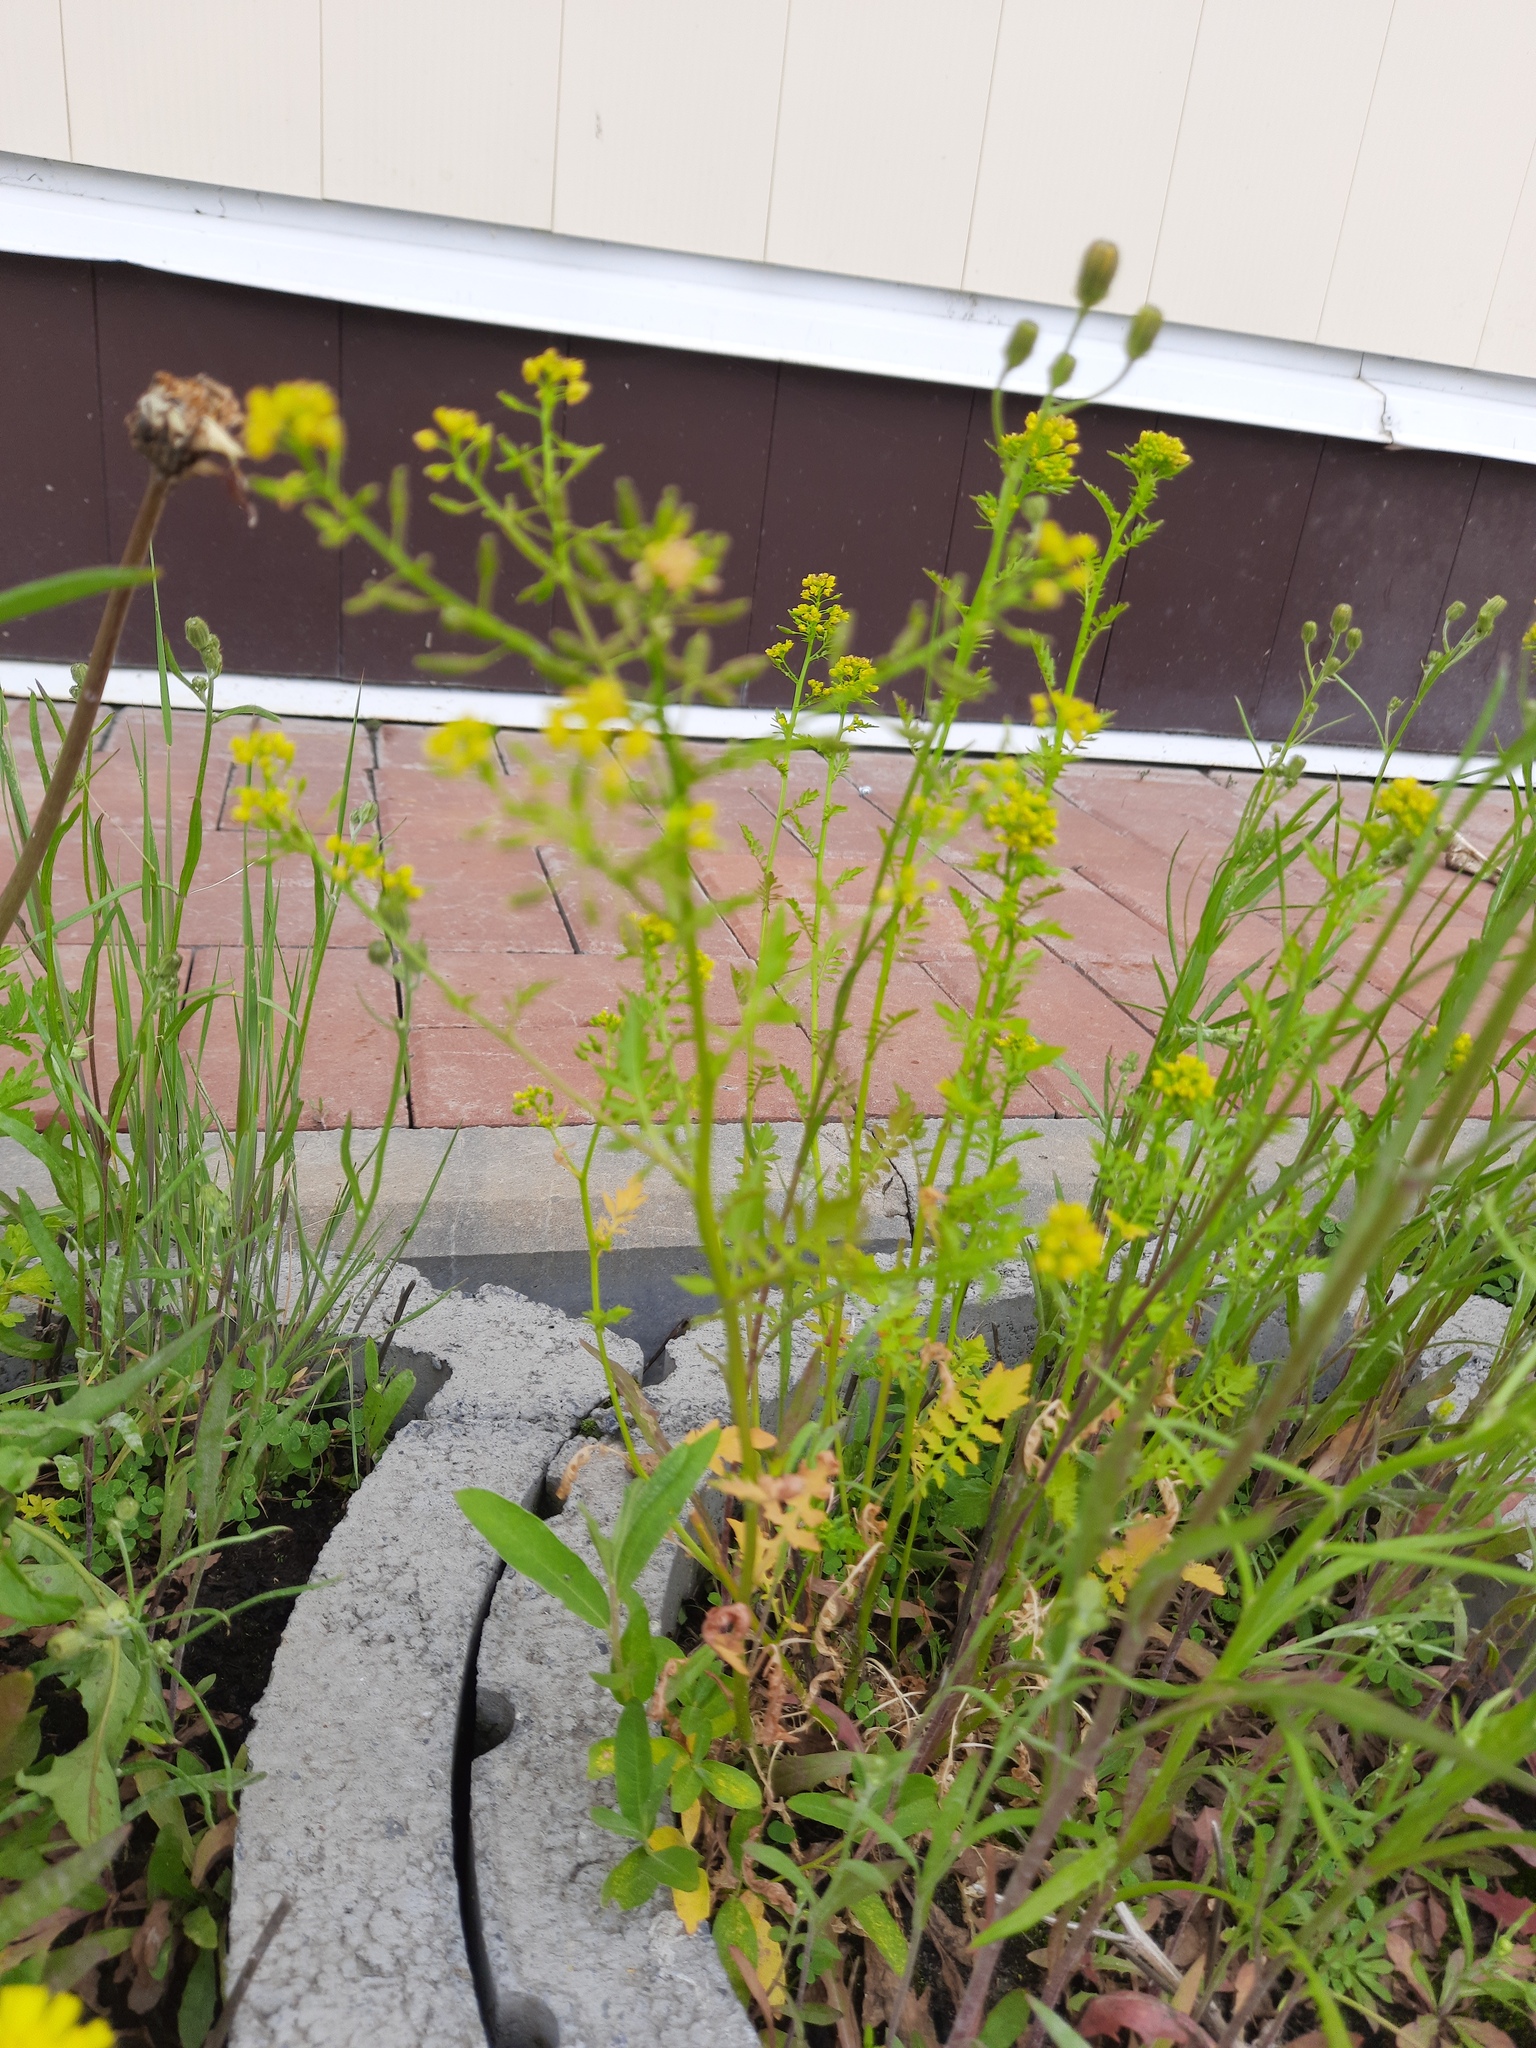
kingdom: Plantae
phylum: Tracheophyta
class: Magnoliopsida
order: Brassicales
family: Brassicaceae
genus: Rorippa
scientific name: Rorippa palustris
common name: Marsh yellow-cress
